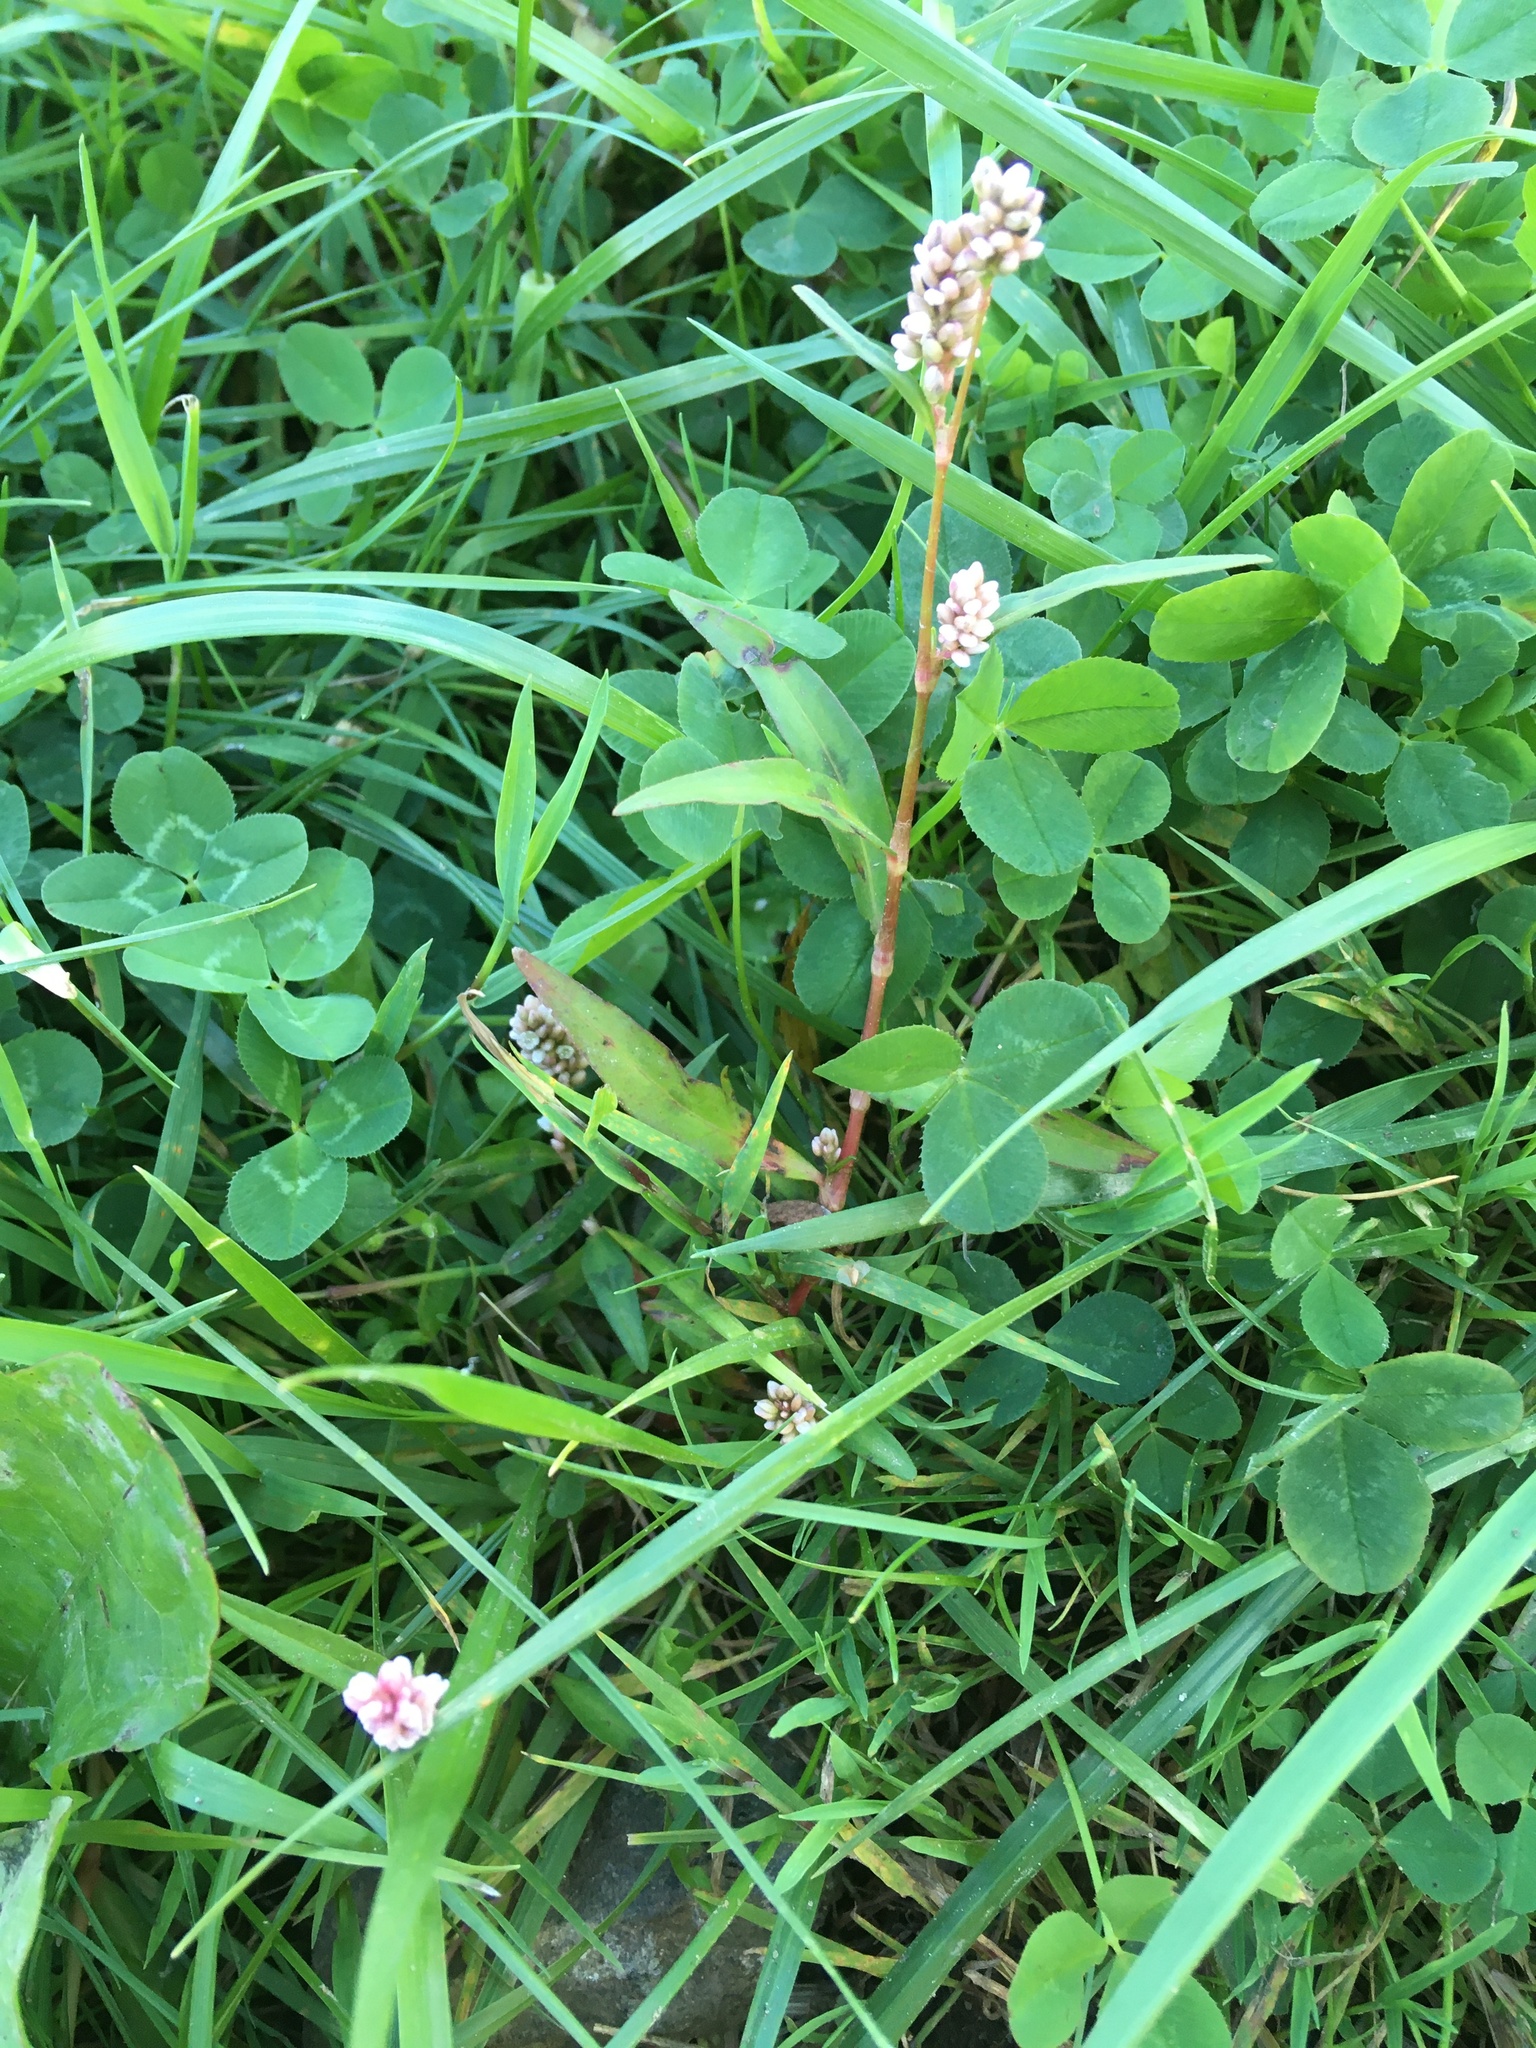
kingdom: Plantae
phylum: Tracheophyta
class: Magnoliopsida
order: Caryophyllales
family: Polygonaceae
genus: Persicaria
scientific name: Persicaria maculosa
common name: Redshank
